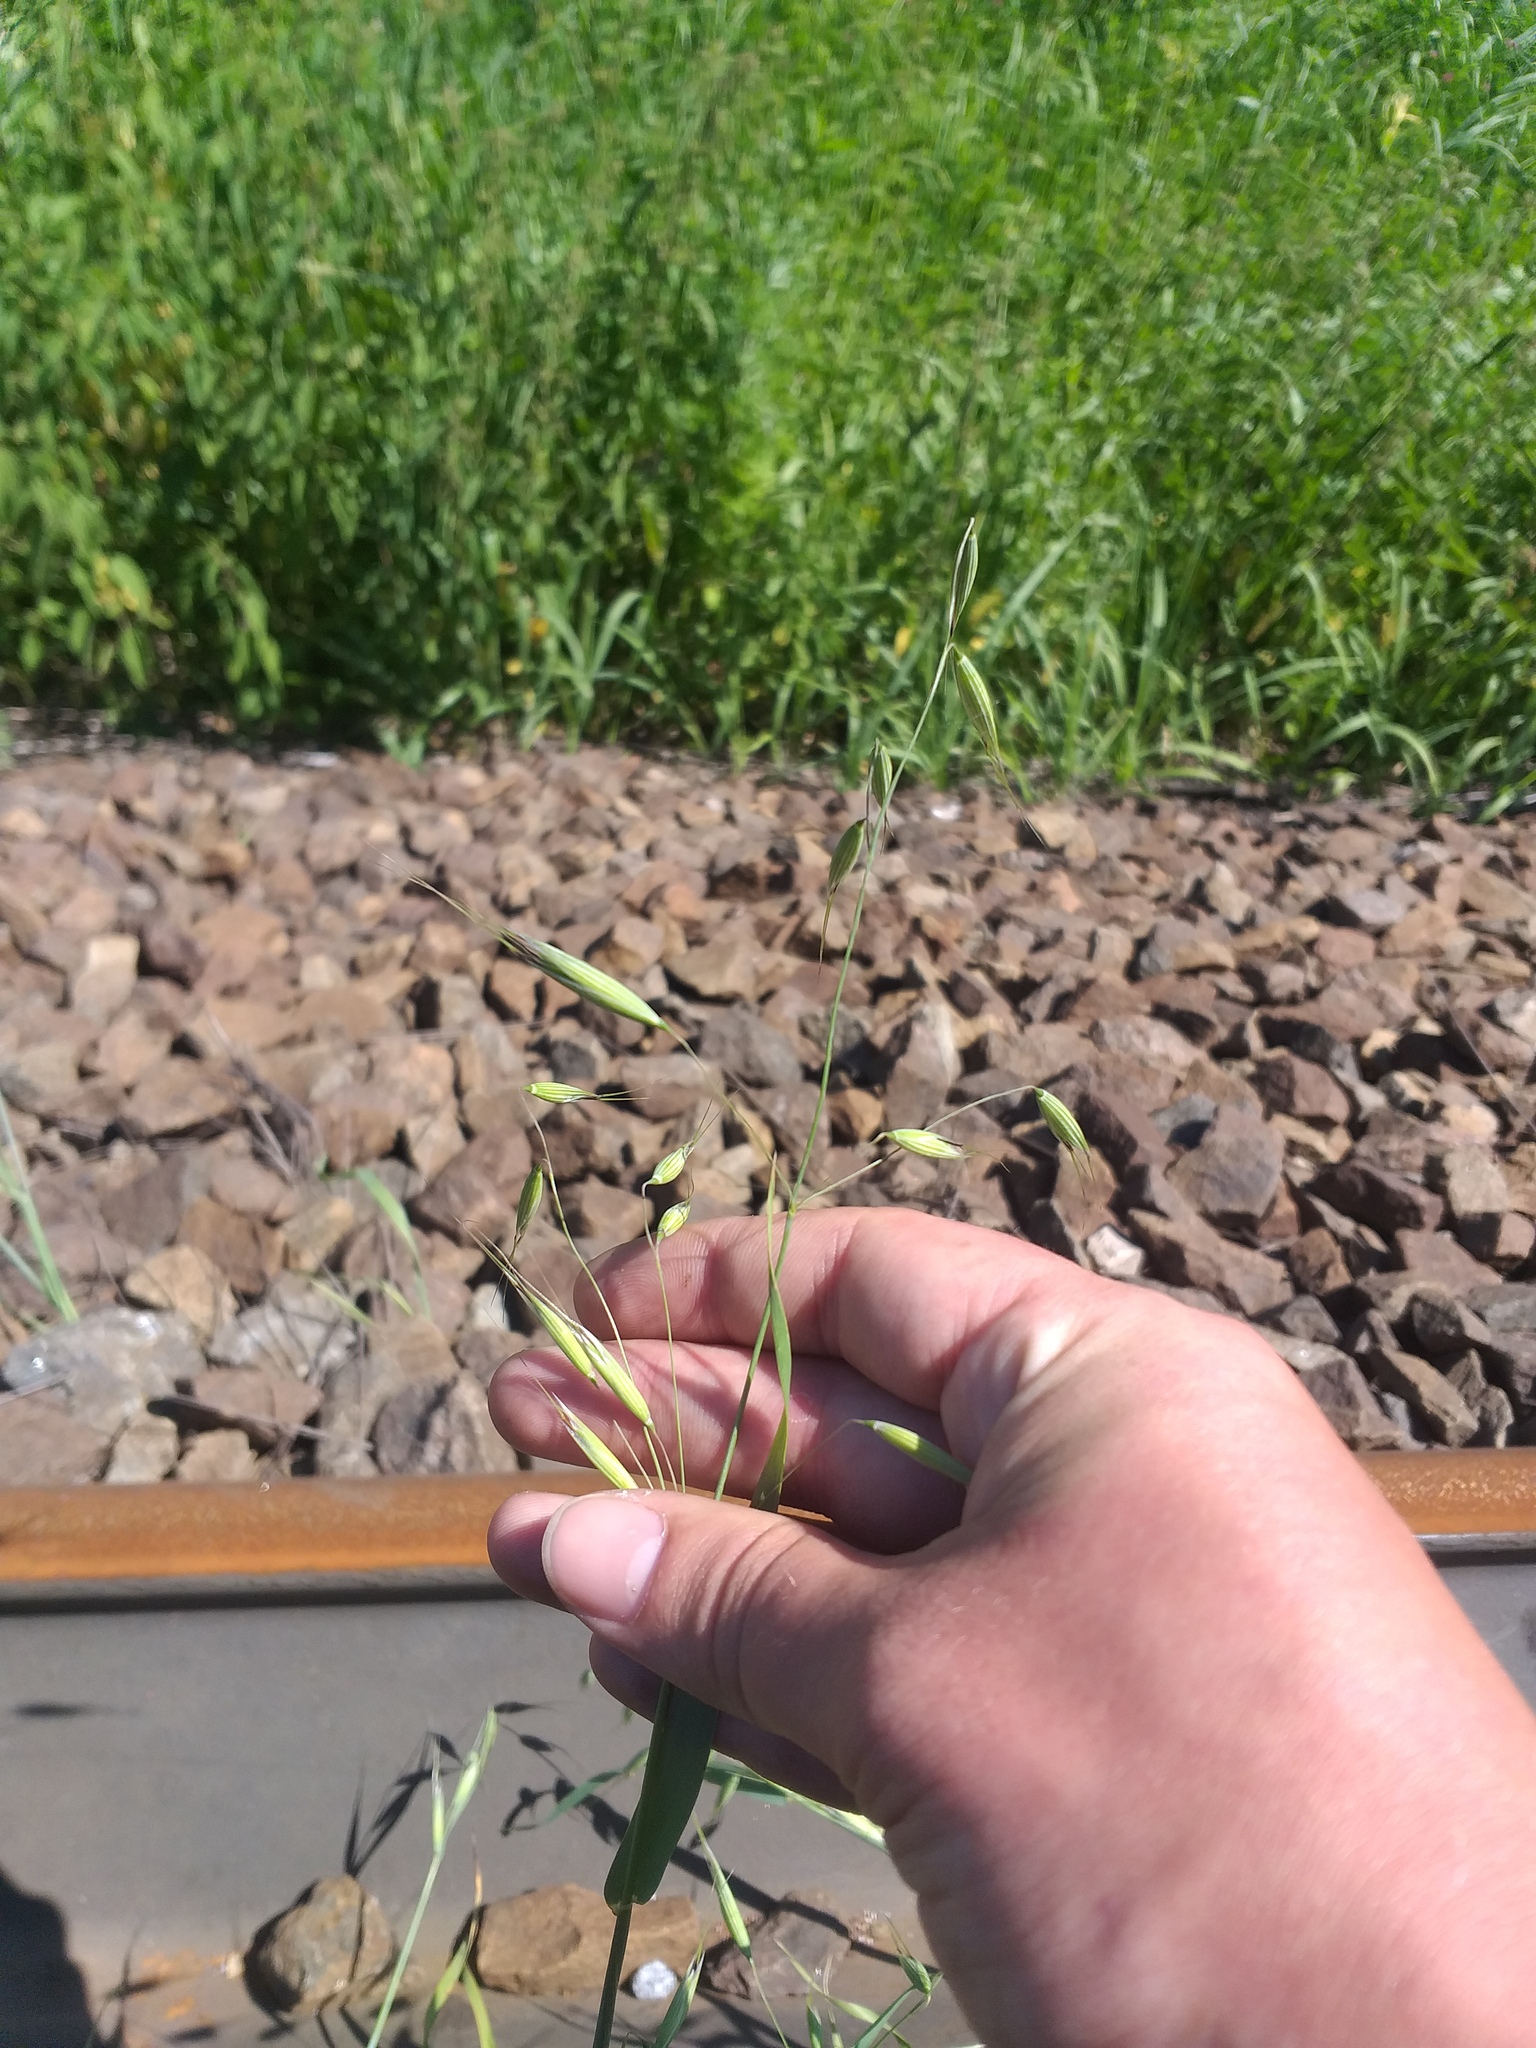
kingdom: Plantae
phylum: Tracheophyta
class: Liliopsida
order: Poales
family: Poaceae
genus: Avena
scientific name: Avena fatua
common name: Wild oat
